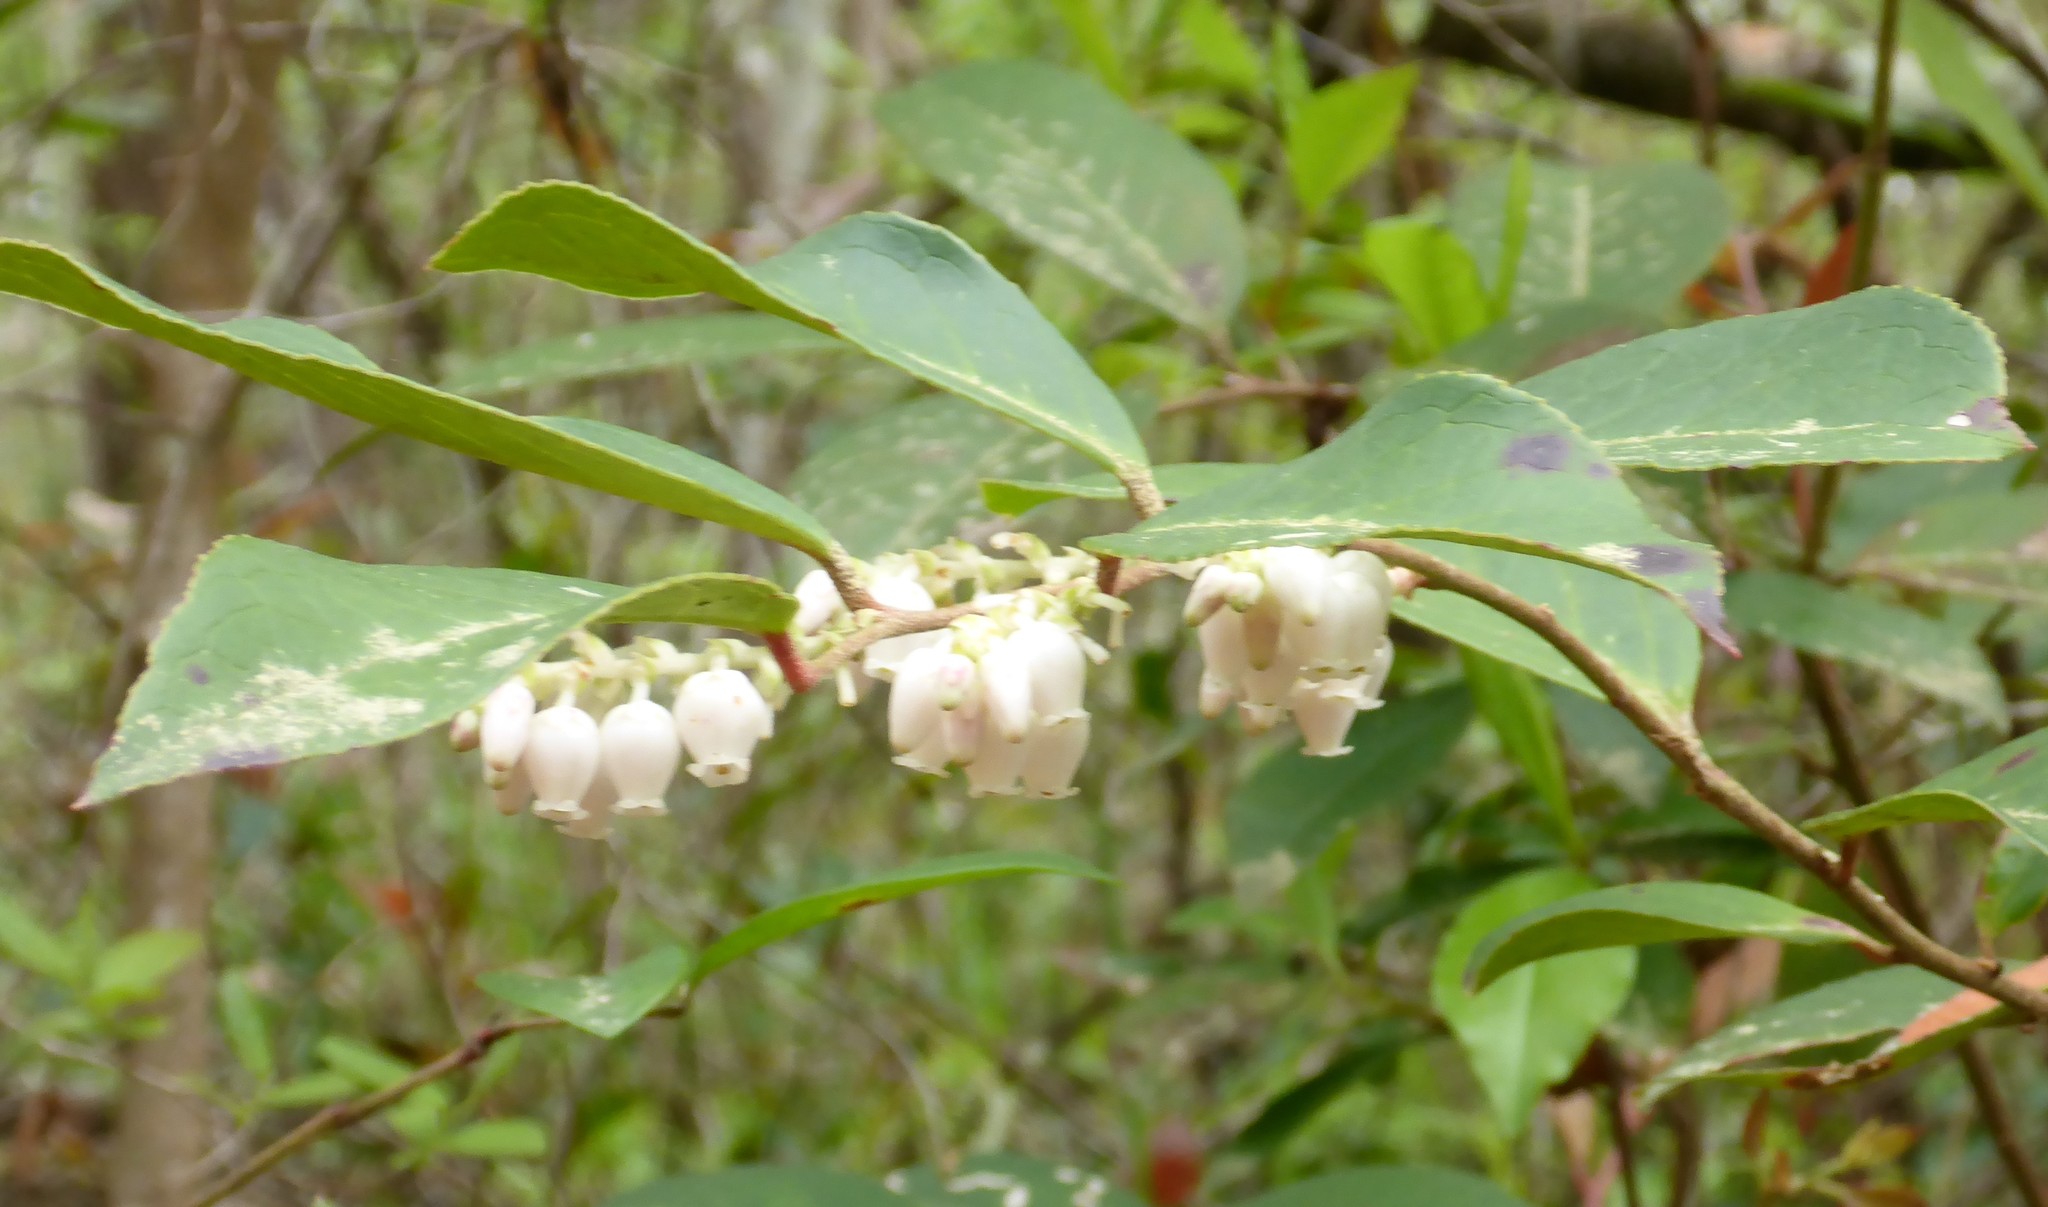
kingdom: Plantae
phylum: Tracheophyta
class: Magnoliopsida
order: Ericales
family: Ericaceae
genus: Lyonia
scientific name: Lyonia lucida
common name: Fetterbush
